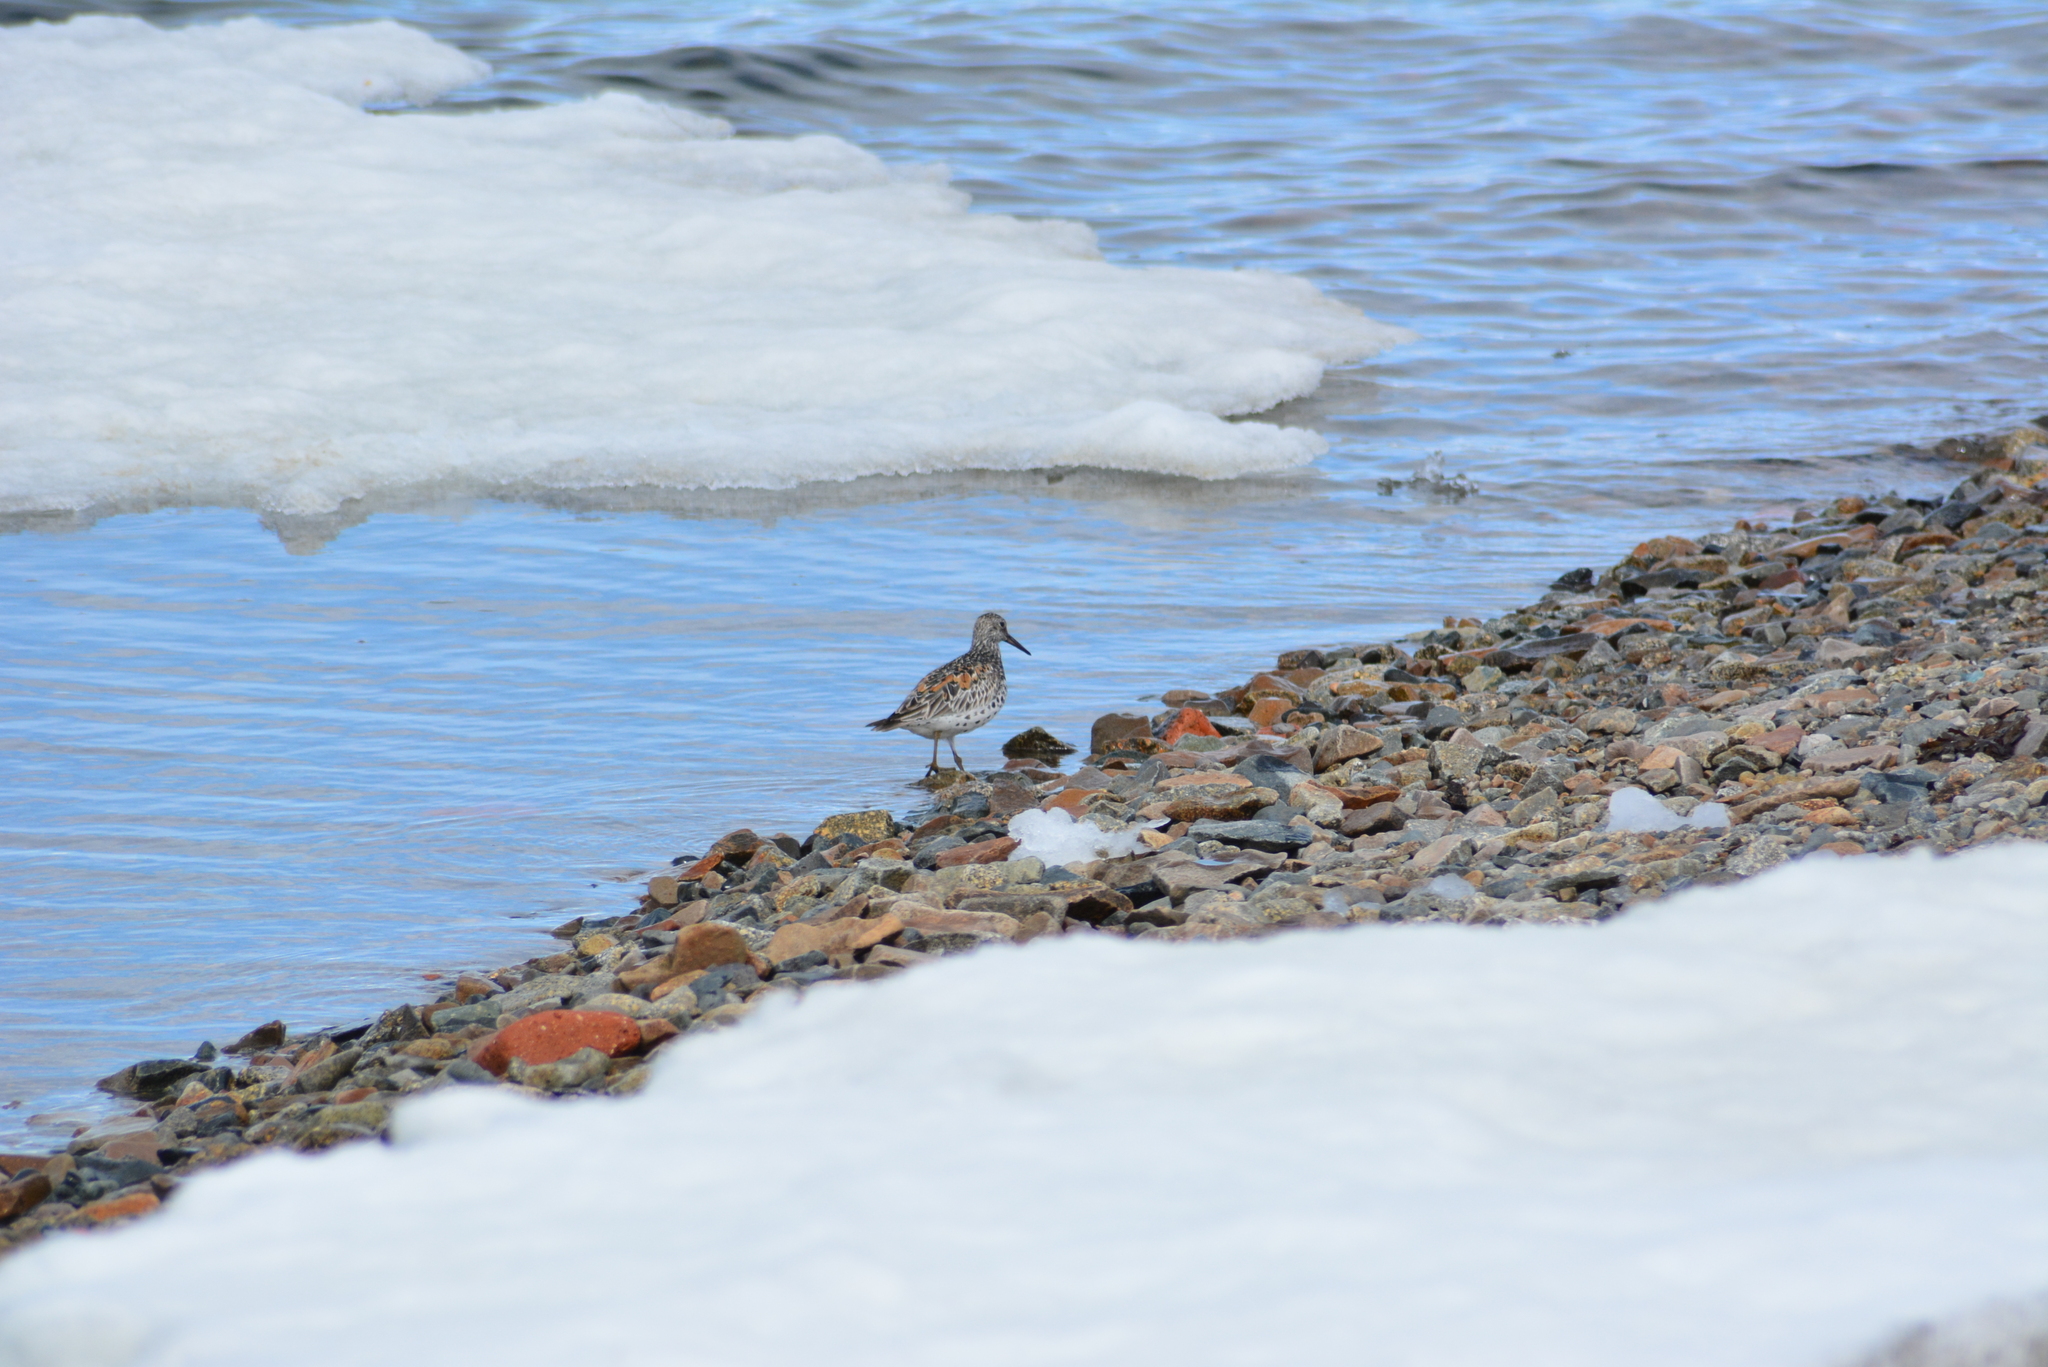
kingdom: Animalia
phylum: Chordata
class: Aves
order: Charadriiformes
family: Scolopacidae
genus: Calidris
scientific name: Calidris tenuirostris
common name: Great knot
